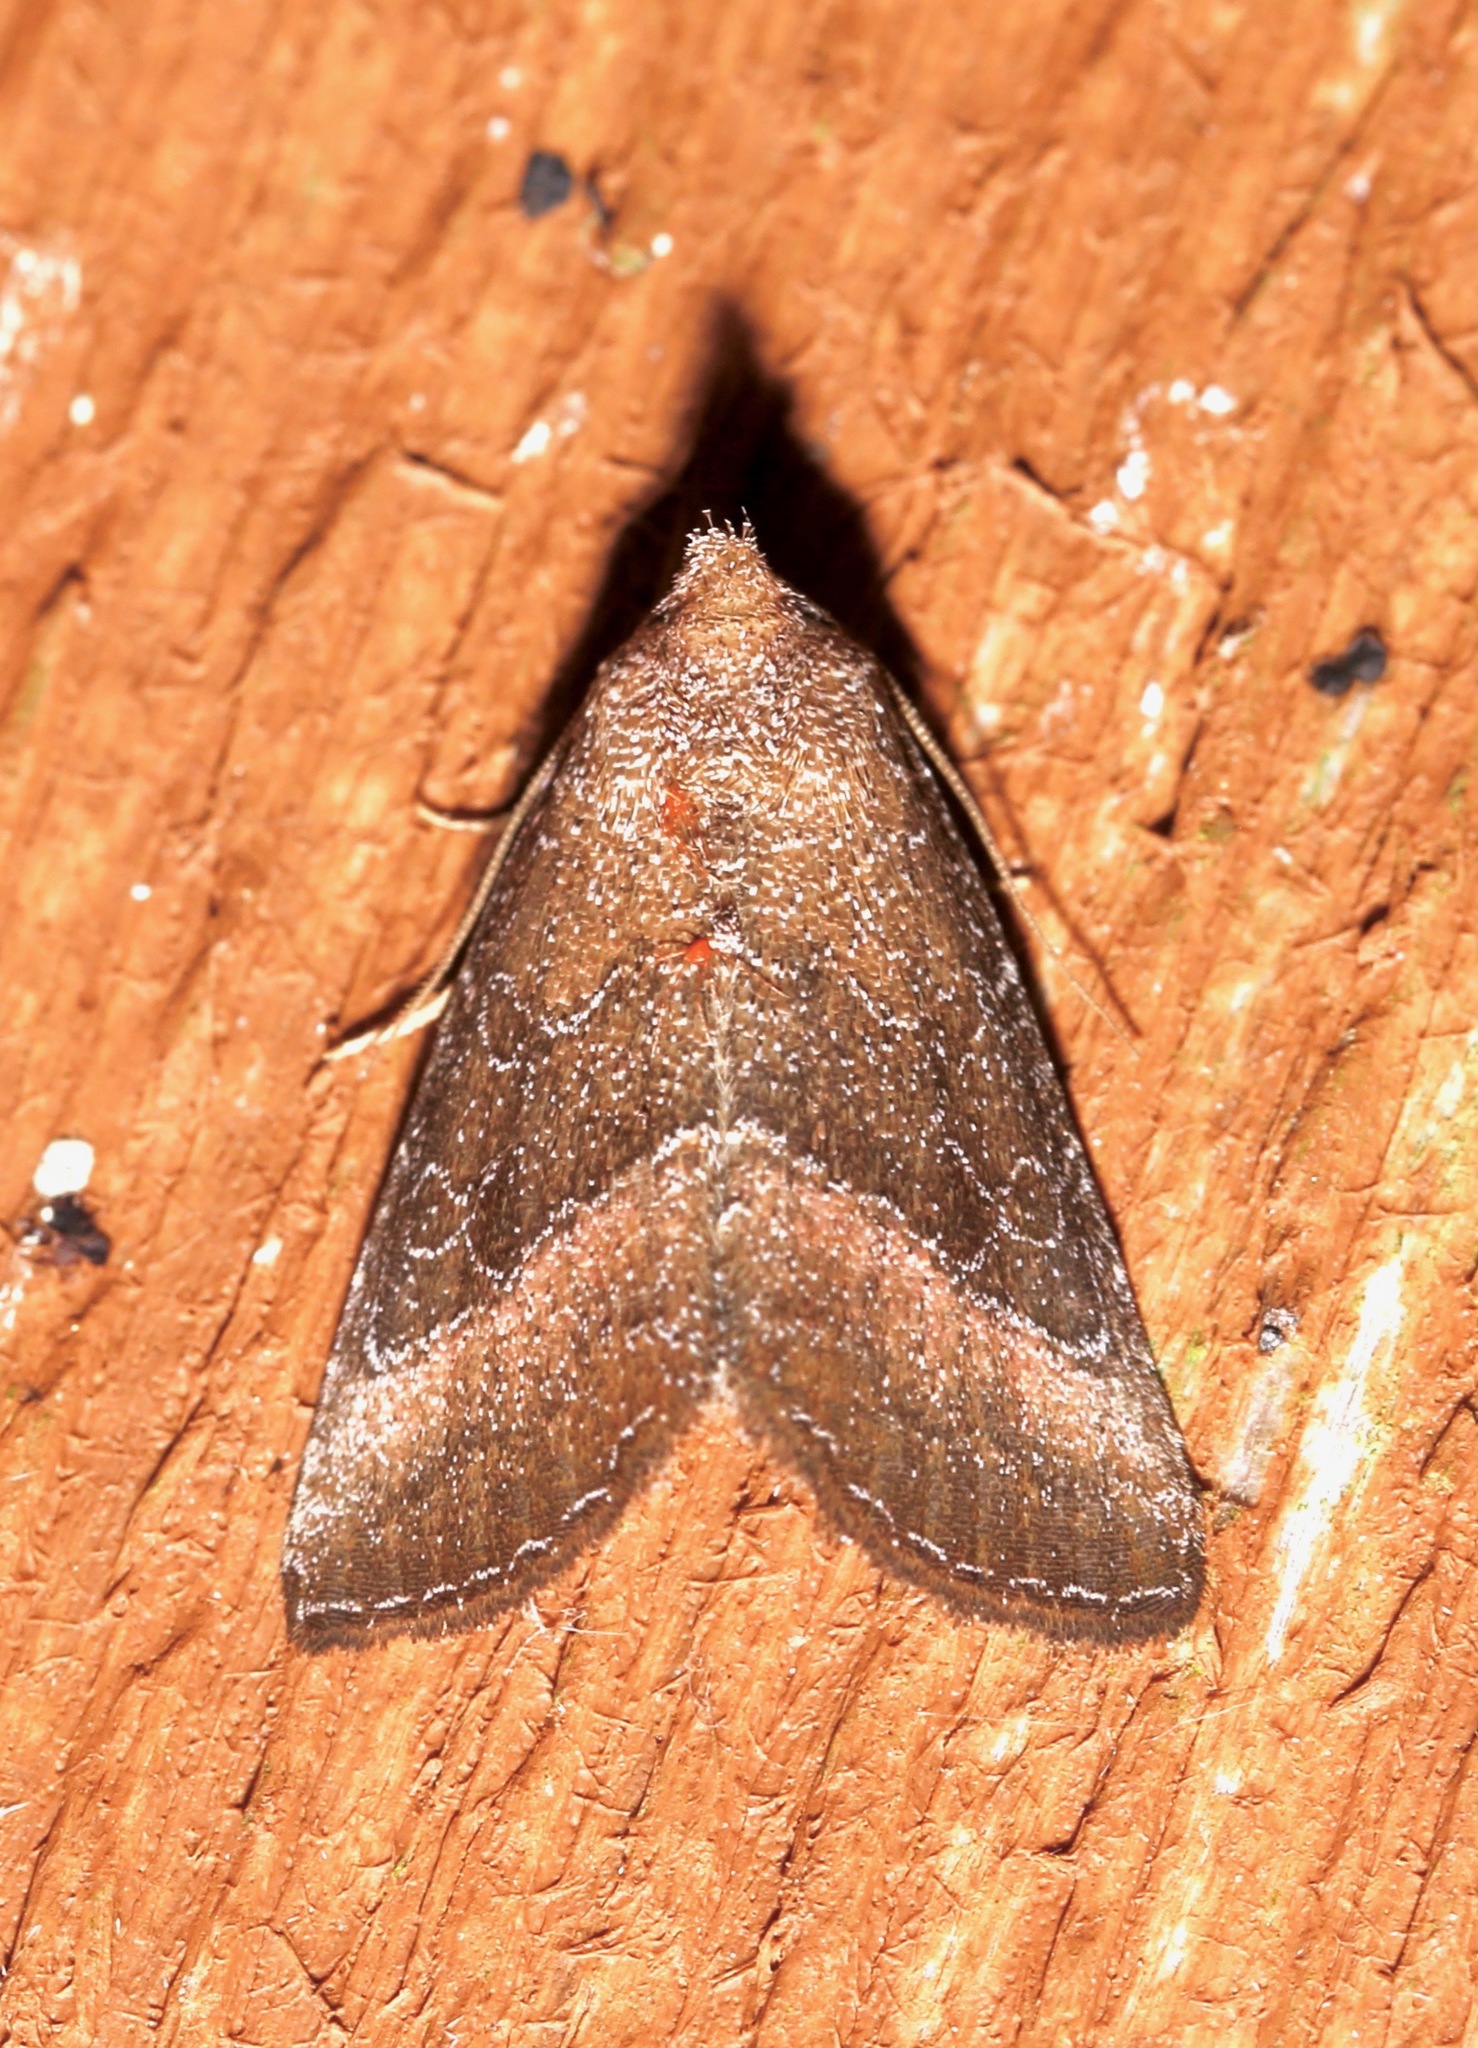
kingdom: Animalia
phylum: Arthropoda
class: Insecta
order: Lepidoptera
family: Noctuidae
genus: Ogdoconta
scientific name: Ogdoconta cinereola
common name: Common pinkband
